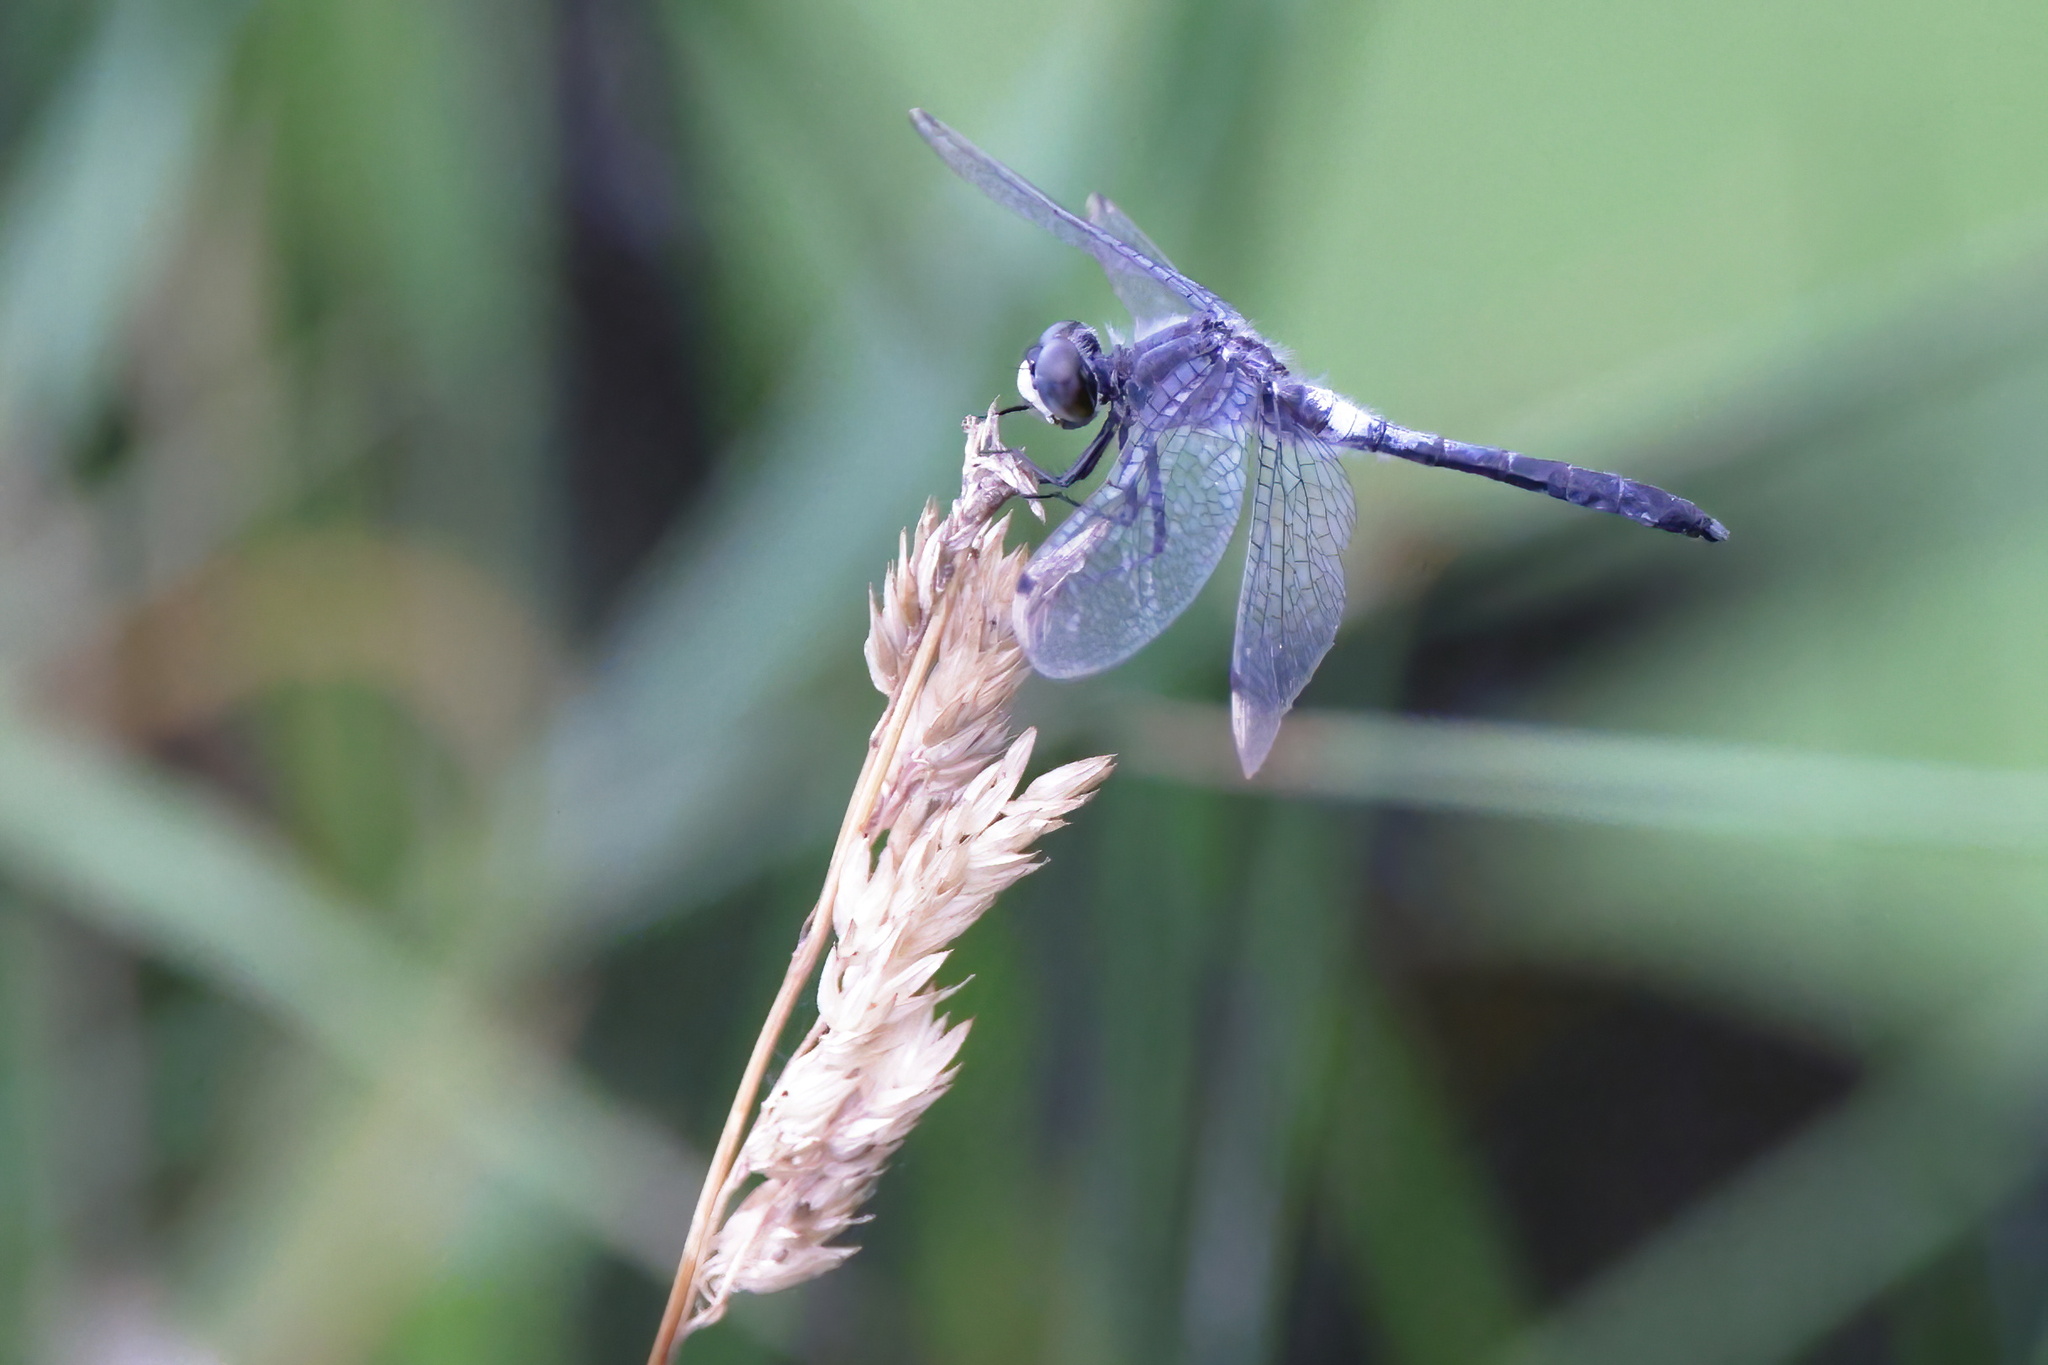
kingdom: Animalia
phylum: Arthropoda
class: Insecta
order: Odonata
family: Libellulidae
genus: Leucorrhinia
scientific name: Leucorrhinia frigida
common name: Frosted whiteface
